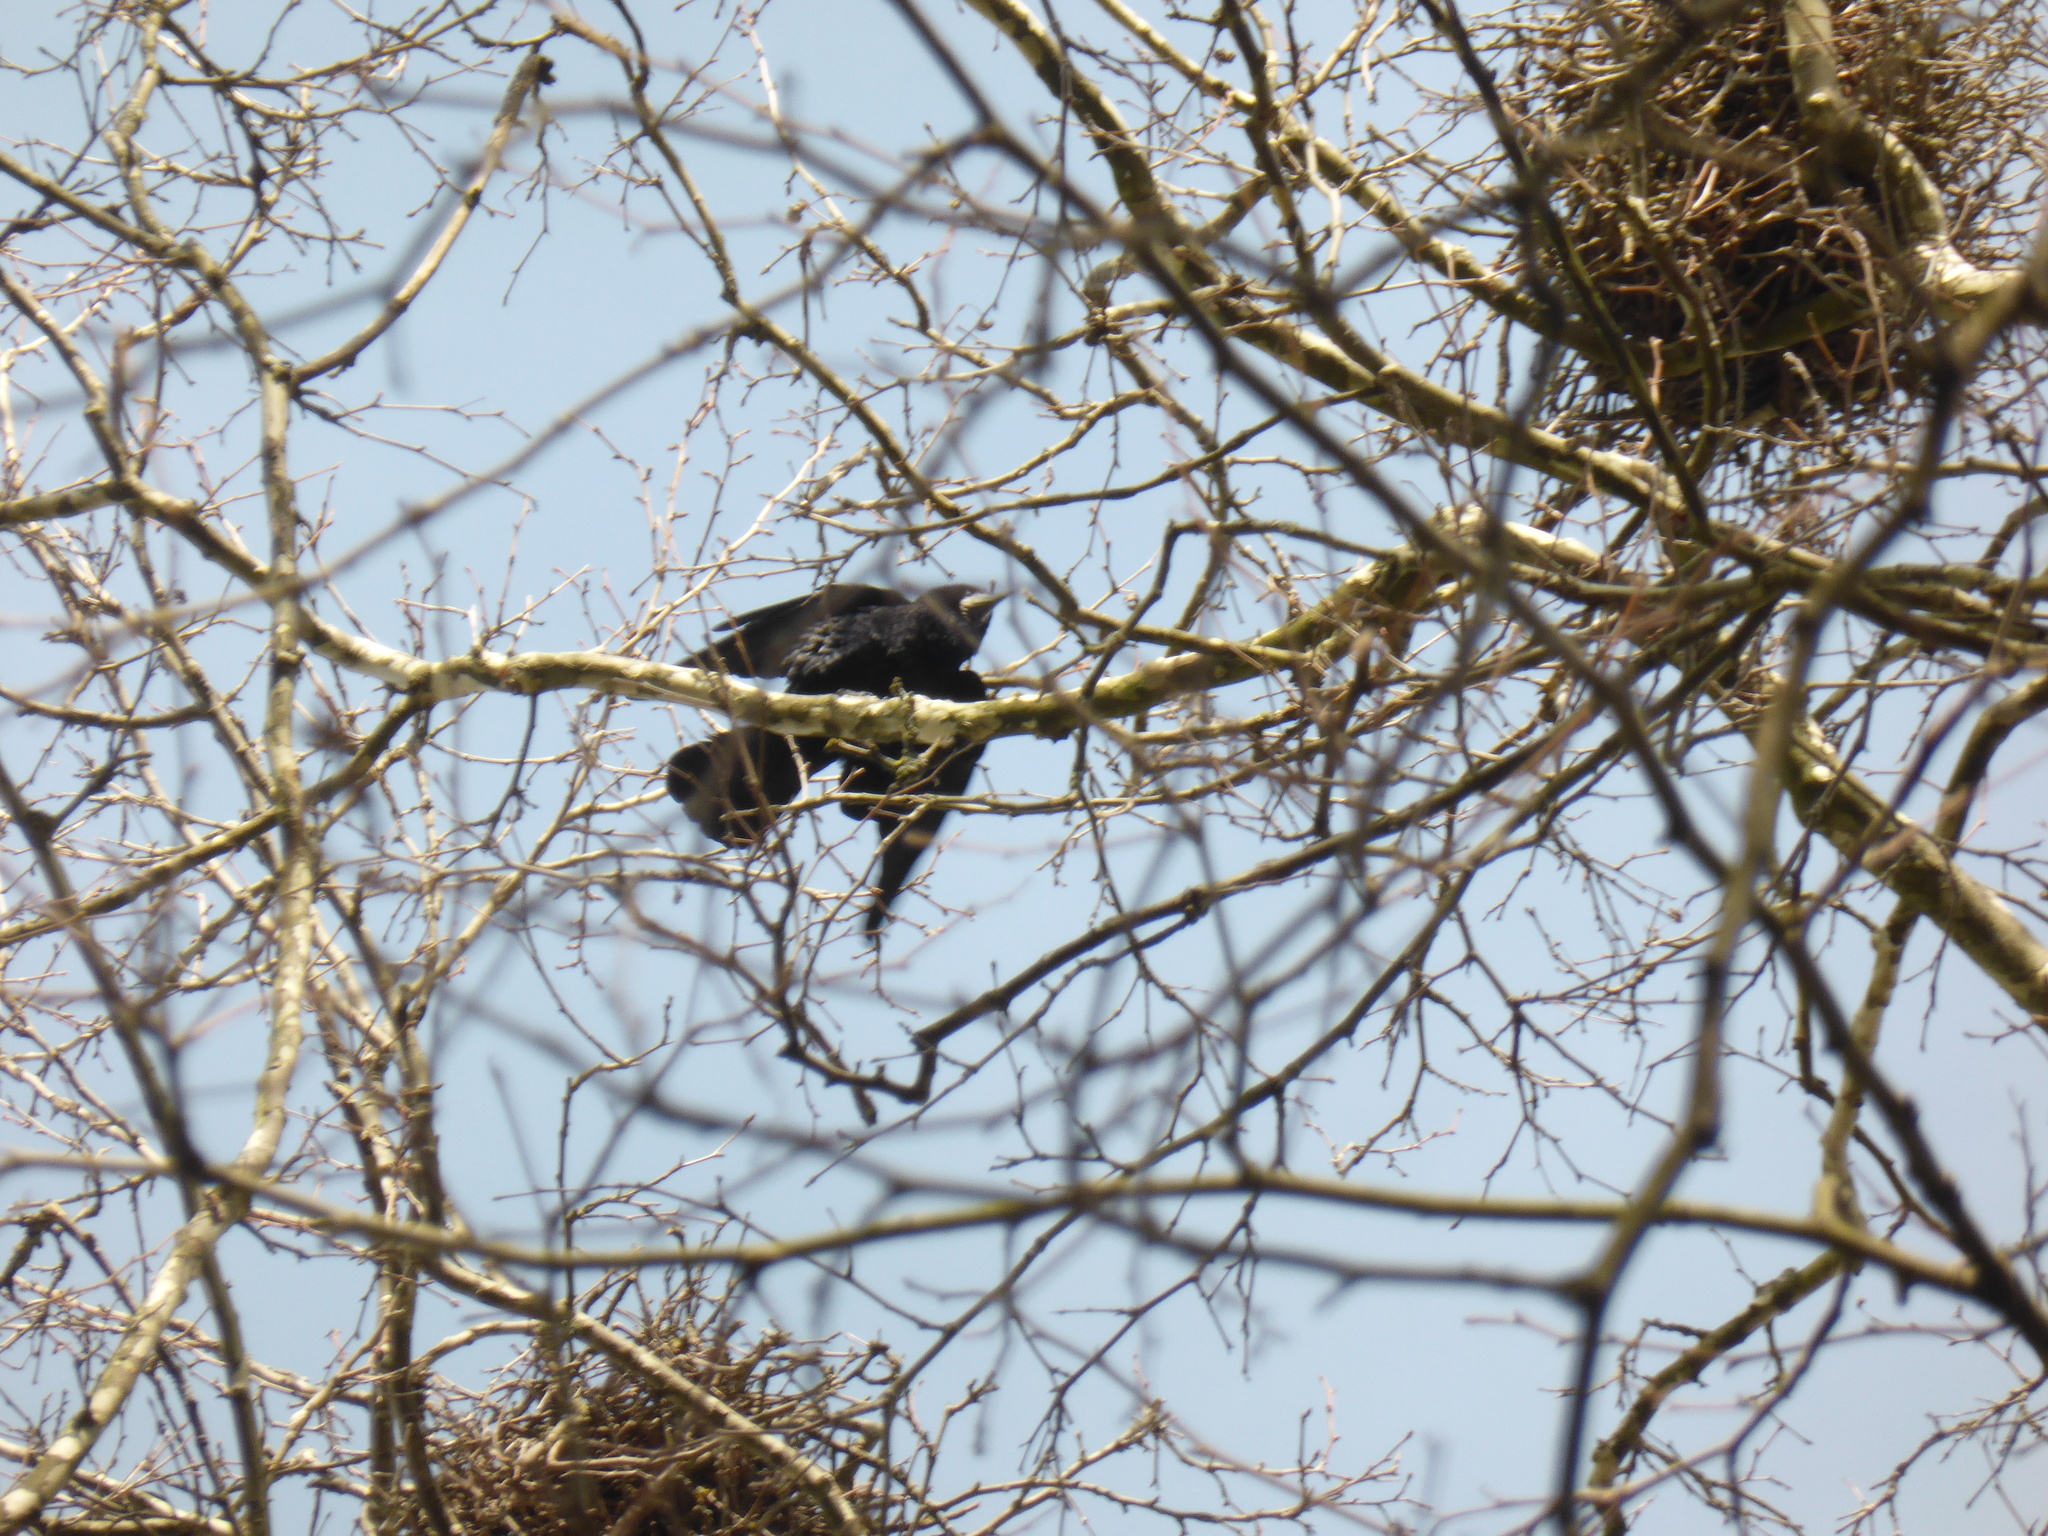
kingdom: Animalia
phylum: Chordata
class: Aves
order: Passeriformes
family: Corvidae
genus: Corvus
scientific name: Corvus frugilegus
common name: Rook
